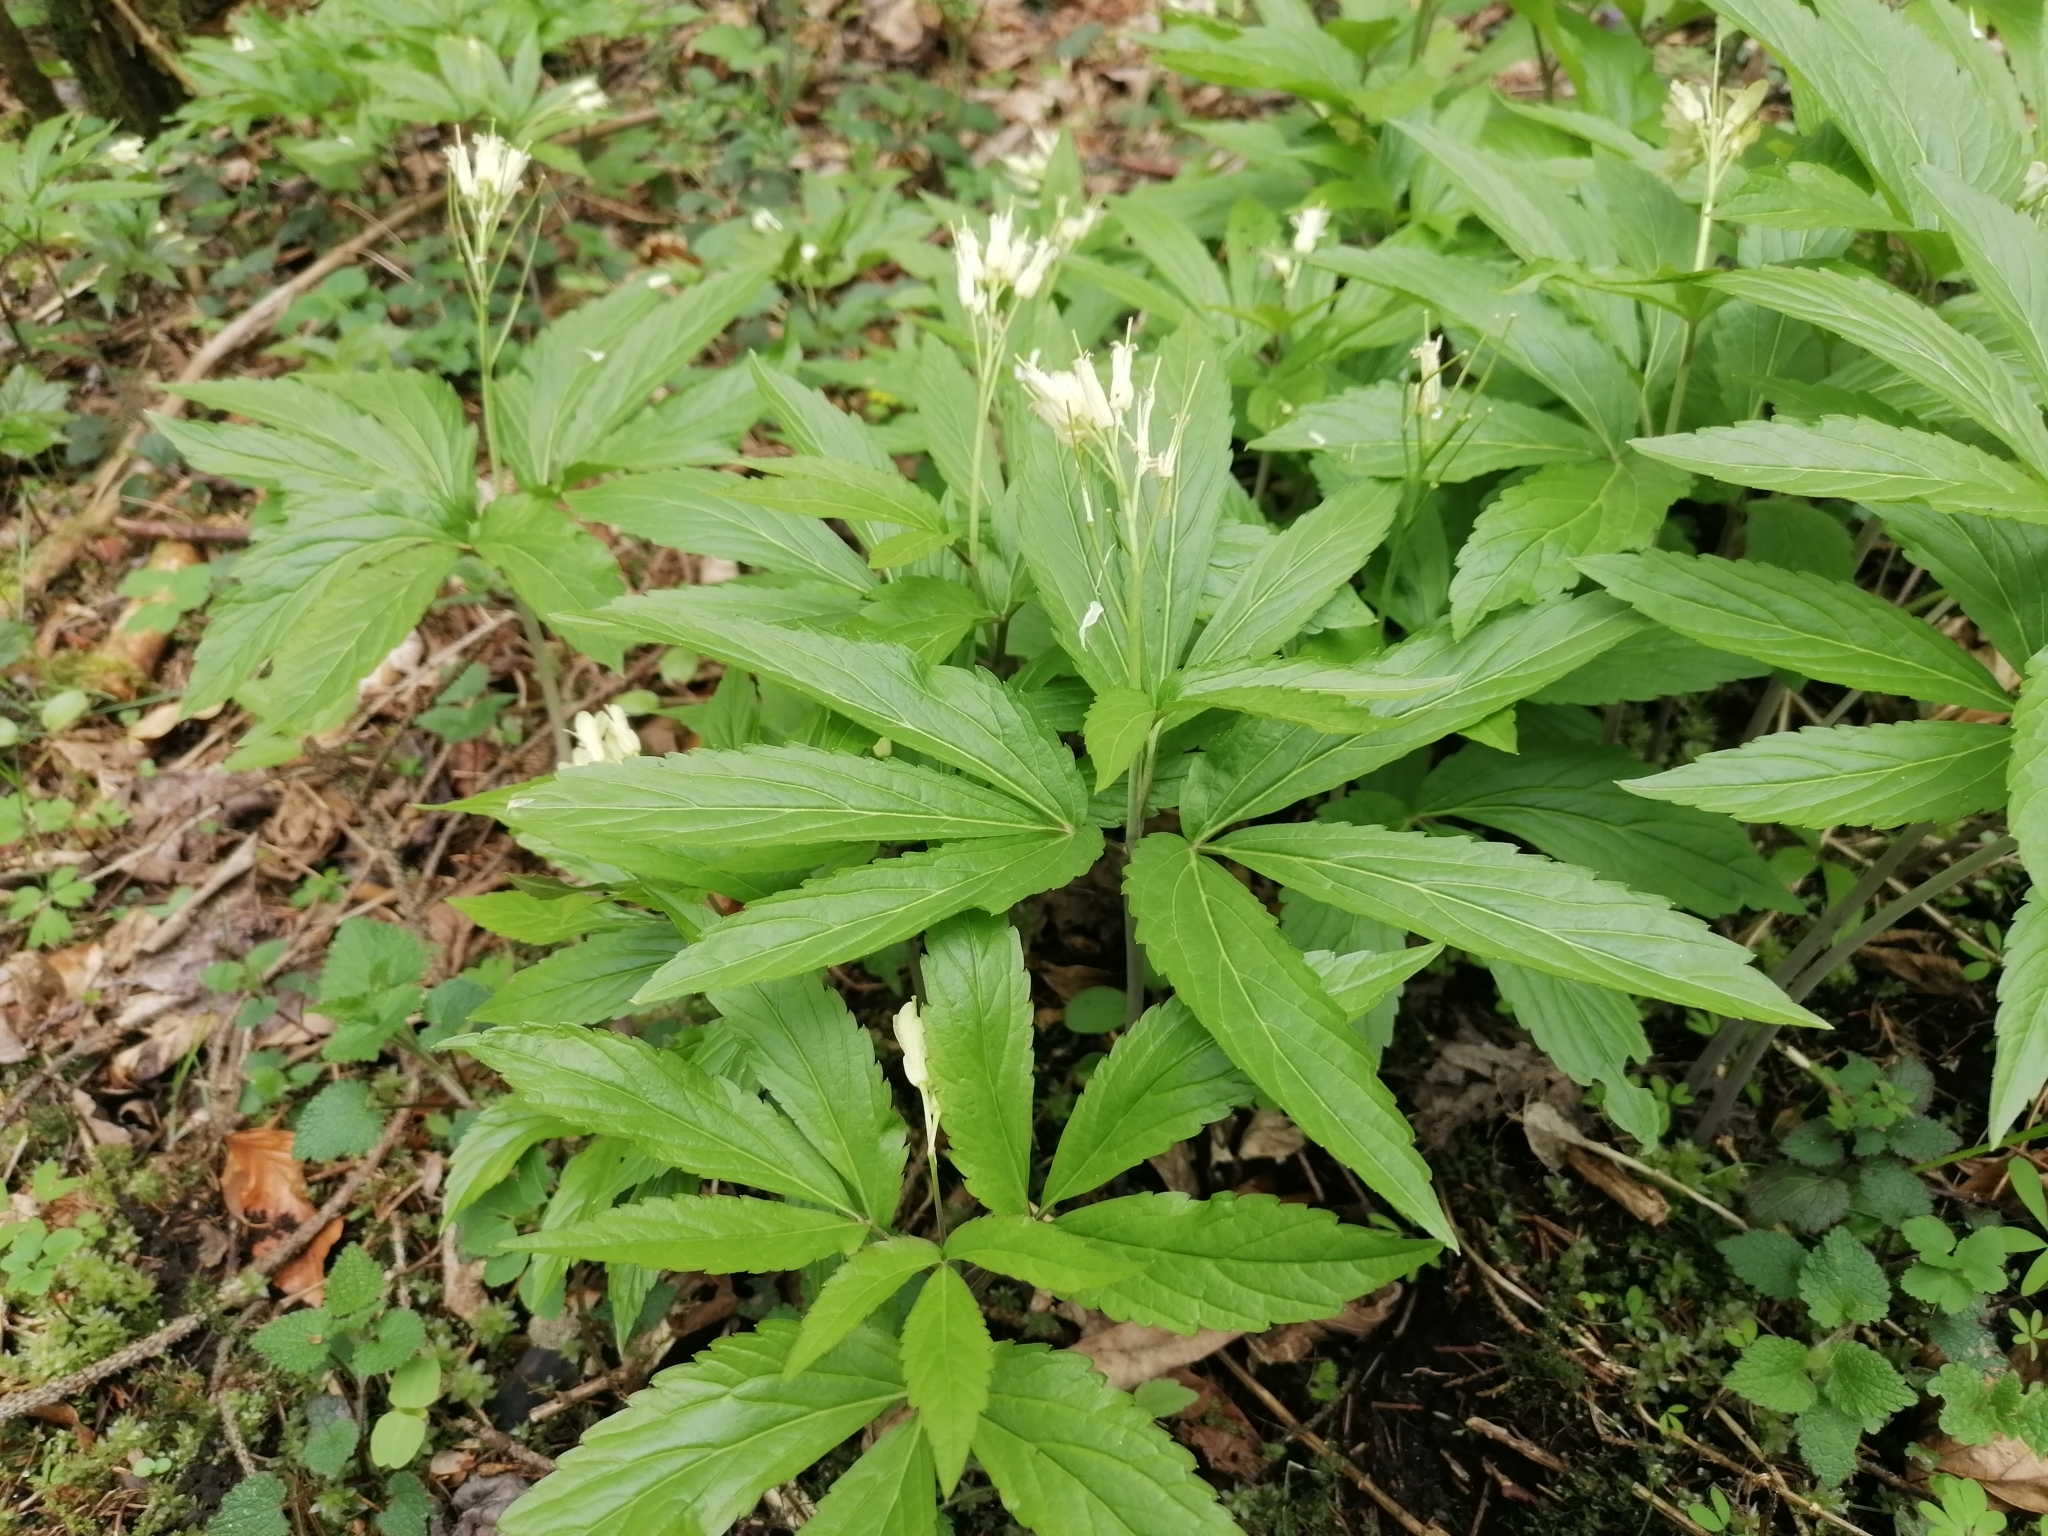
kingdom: Plantae
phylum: Tracheophyta
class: Magnoliopsida
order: Brassicales
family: Brassicaceae
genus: Cardamine
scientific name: Cardamine enneaphyllos
